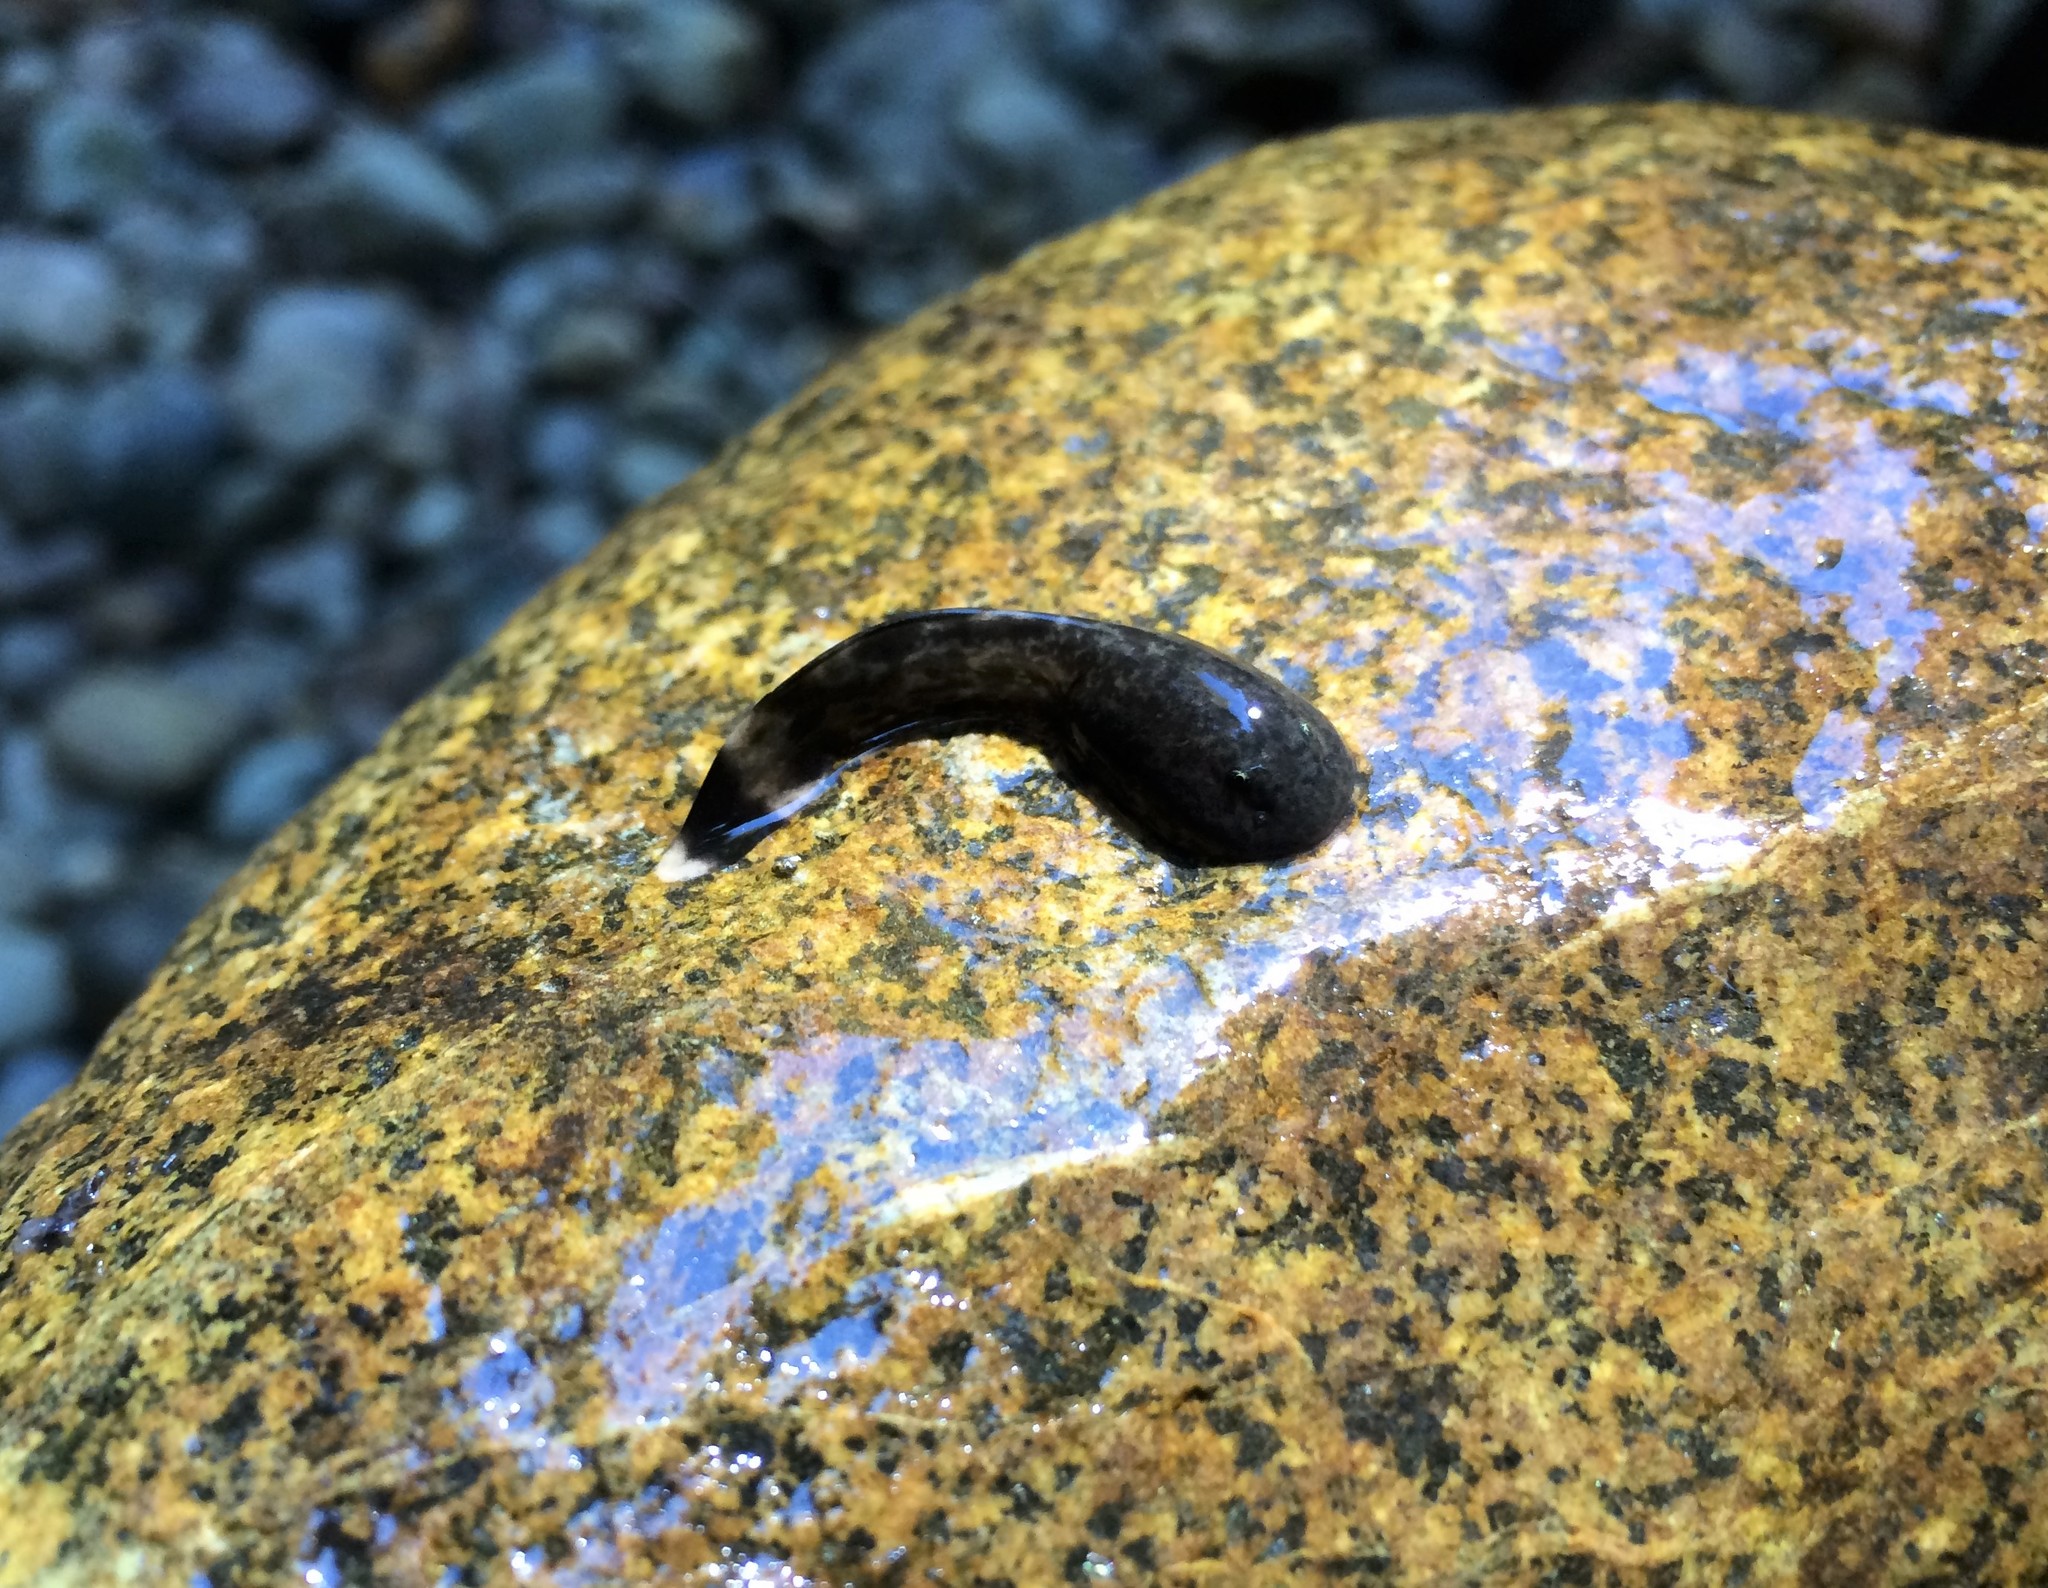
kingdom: Animalia
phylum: Chordata
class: Amphibia
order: Anura
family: Ascaphidae
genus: Ascaphus
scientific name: Ascaphus truei
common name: Tailed frog
